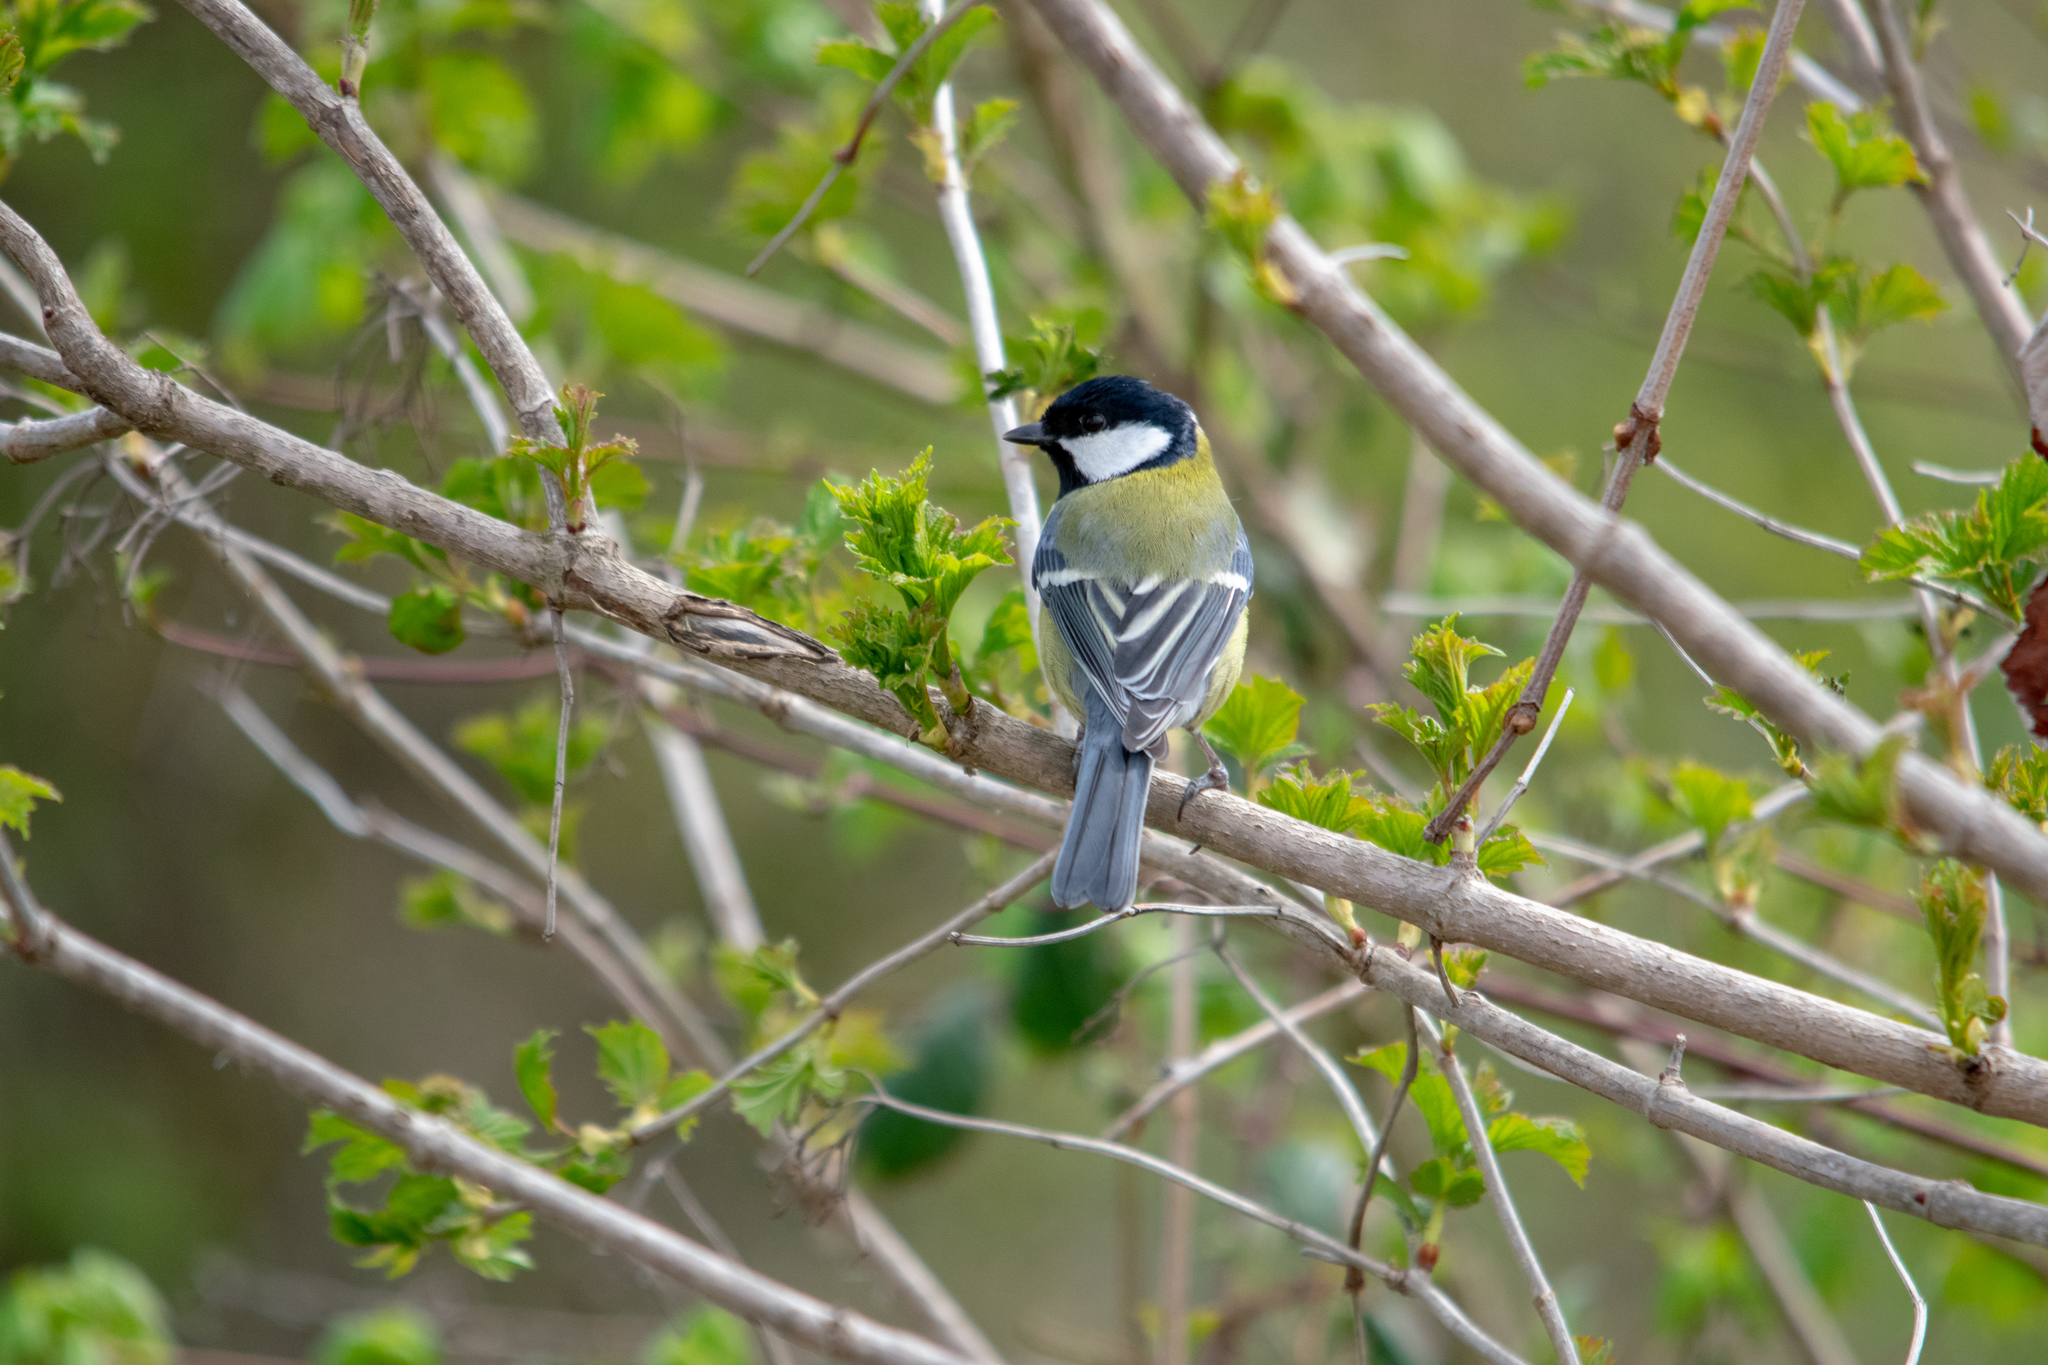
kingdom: Animalia
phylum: Chordata
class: Aves
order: Passeriformes
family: Paridae
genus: Parus
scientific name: Parus major
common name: Great tit
